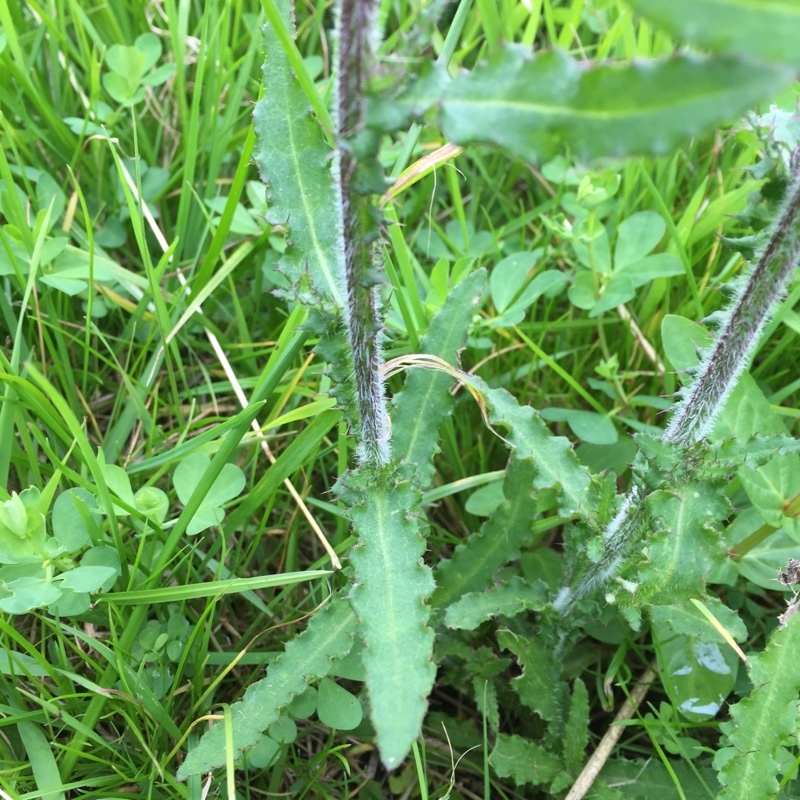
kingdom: Plantae
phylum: Tracheophyta
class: Magnoliopsida
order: Asterales
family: Asteraceae
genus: Cirsium
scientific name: Cirsium palustre
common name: Marsh thistle
